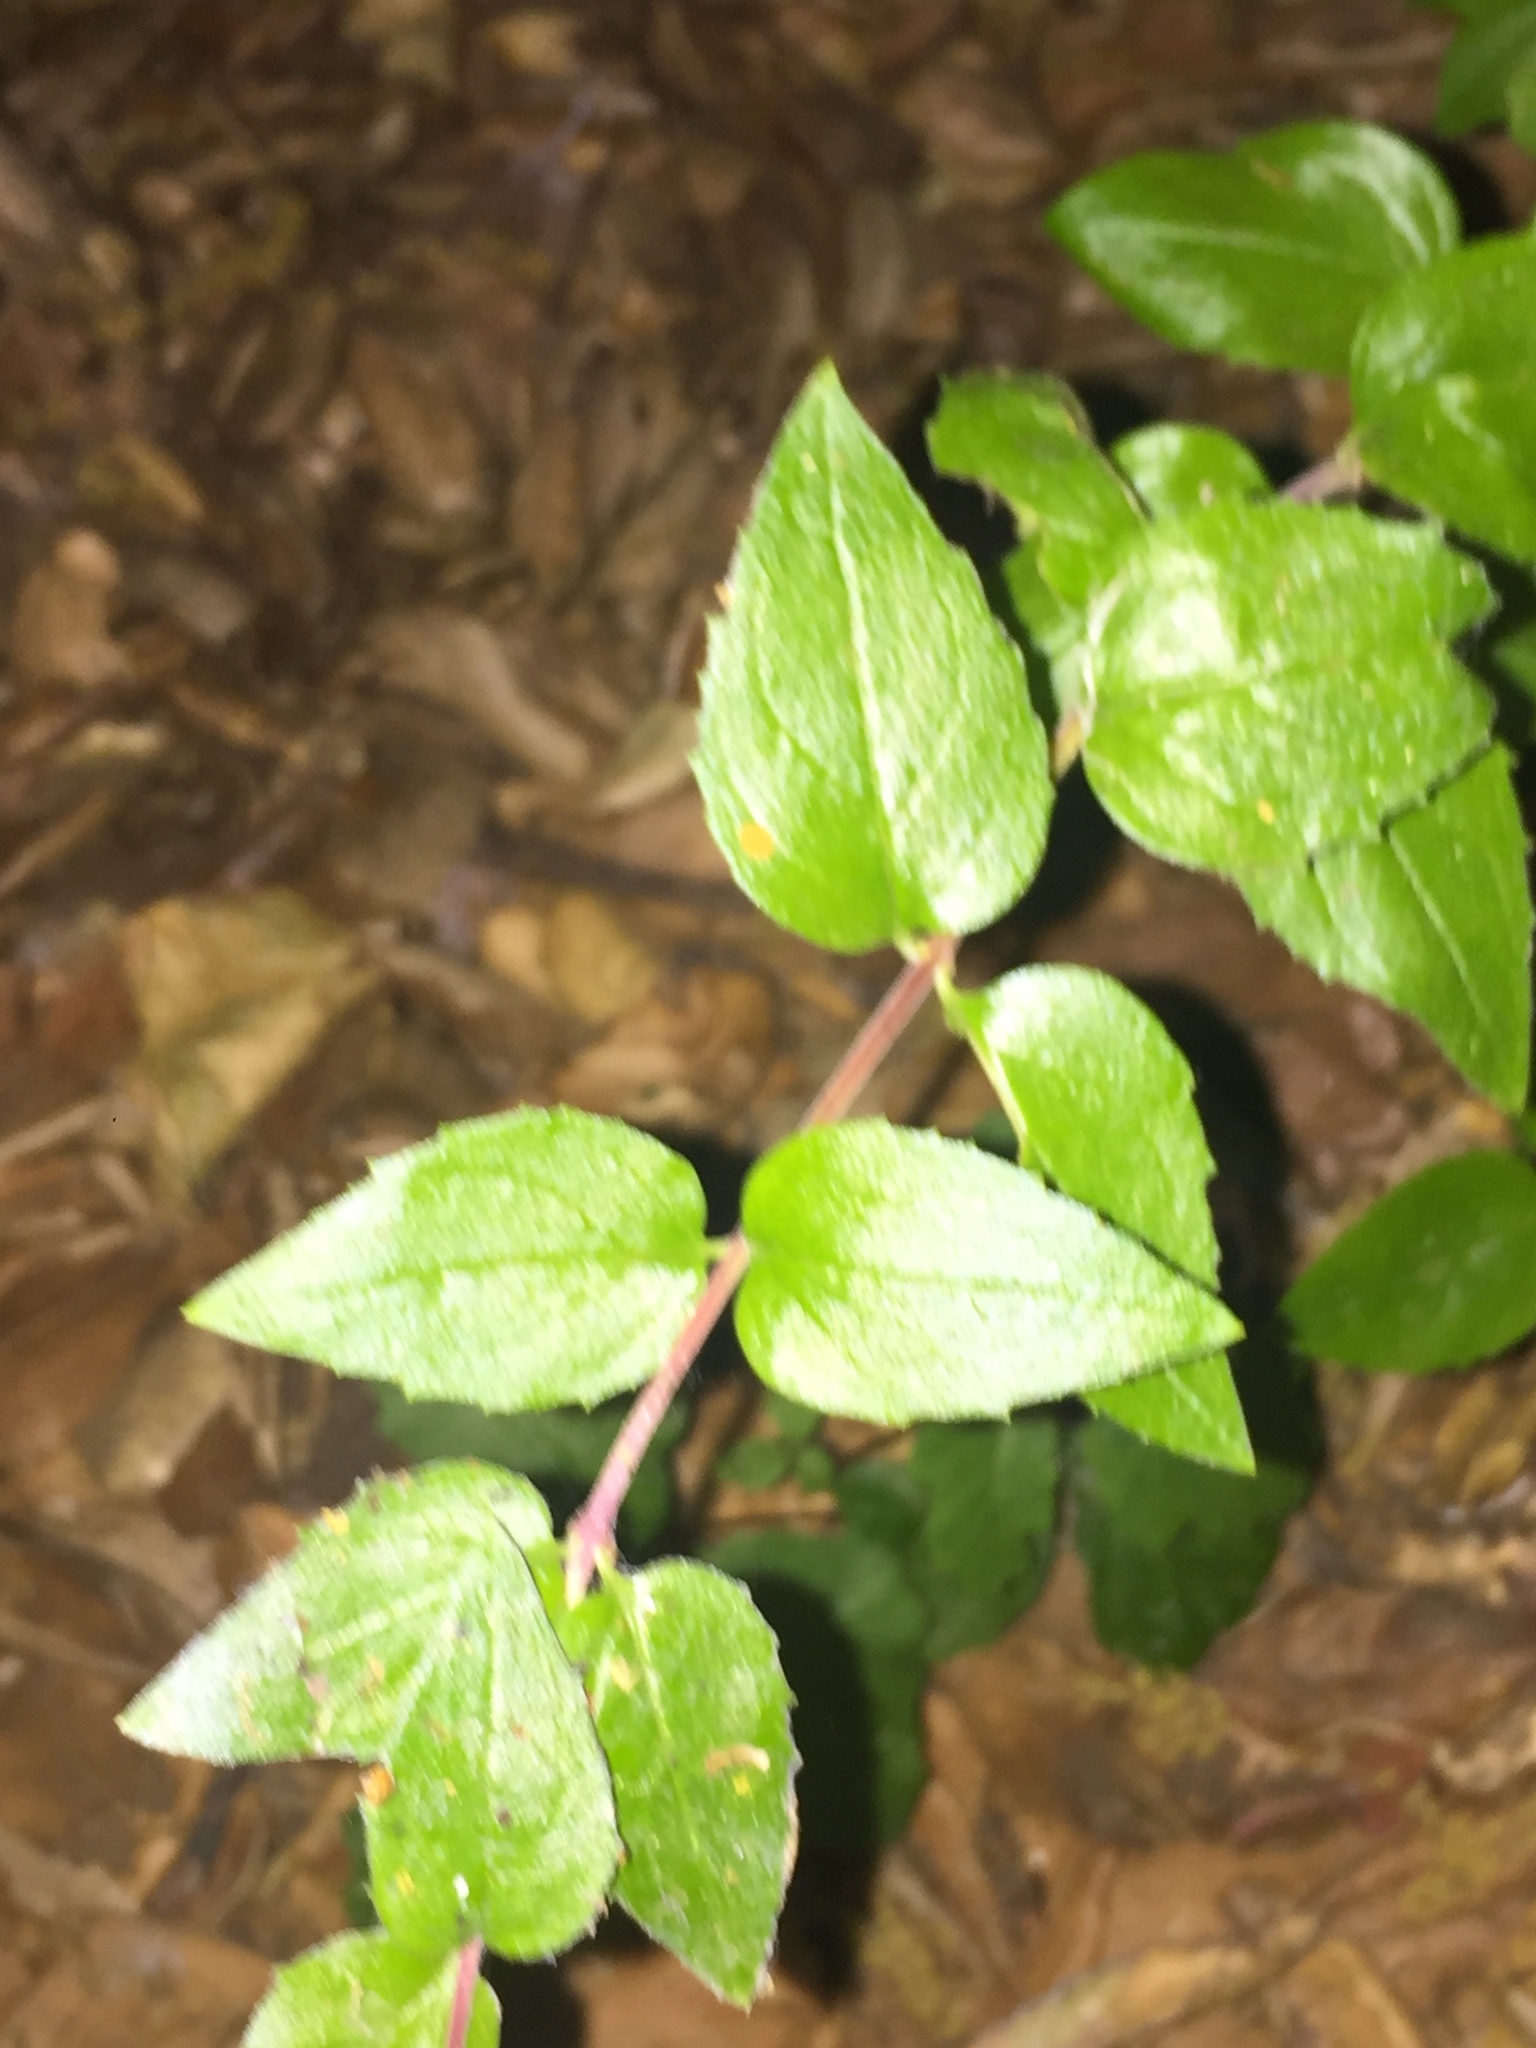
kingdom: Plantae
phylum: Tracheophyta
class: Magnoliopsida
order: Lamiales
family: Plantaginaceae
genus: Keckiella
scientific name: Keckiella cordifolia
